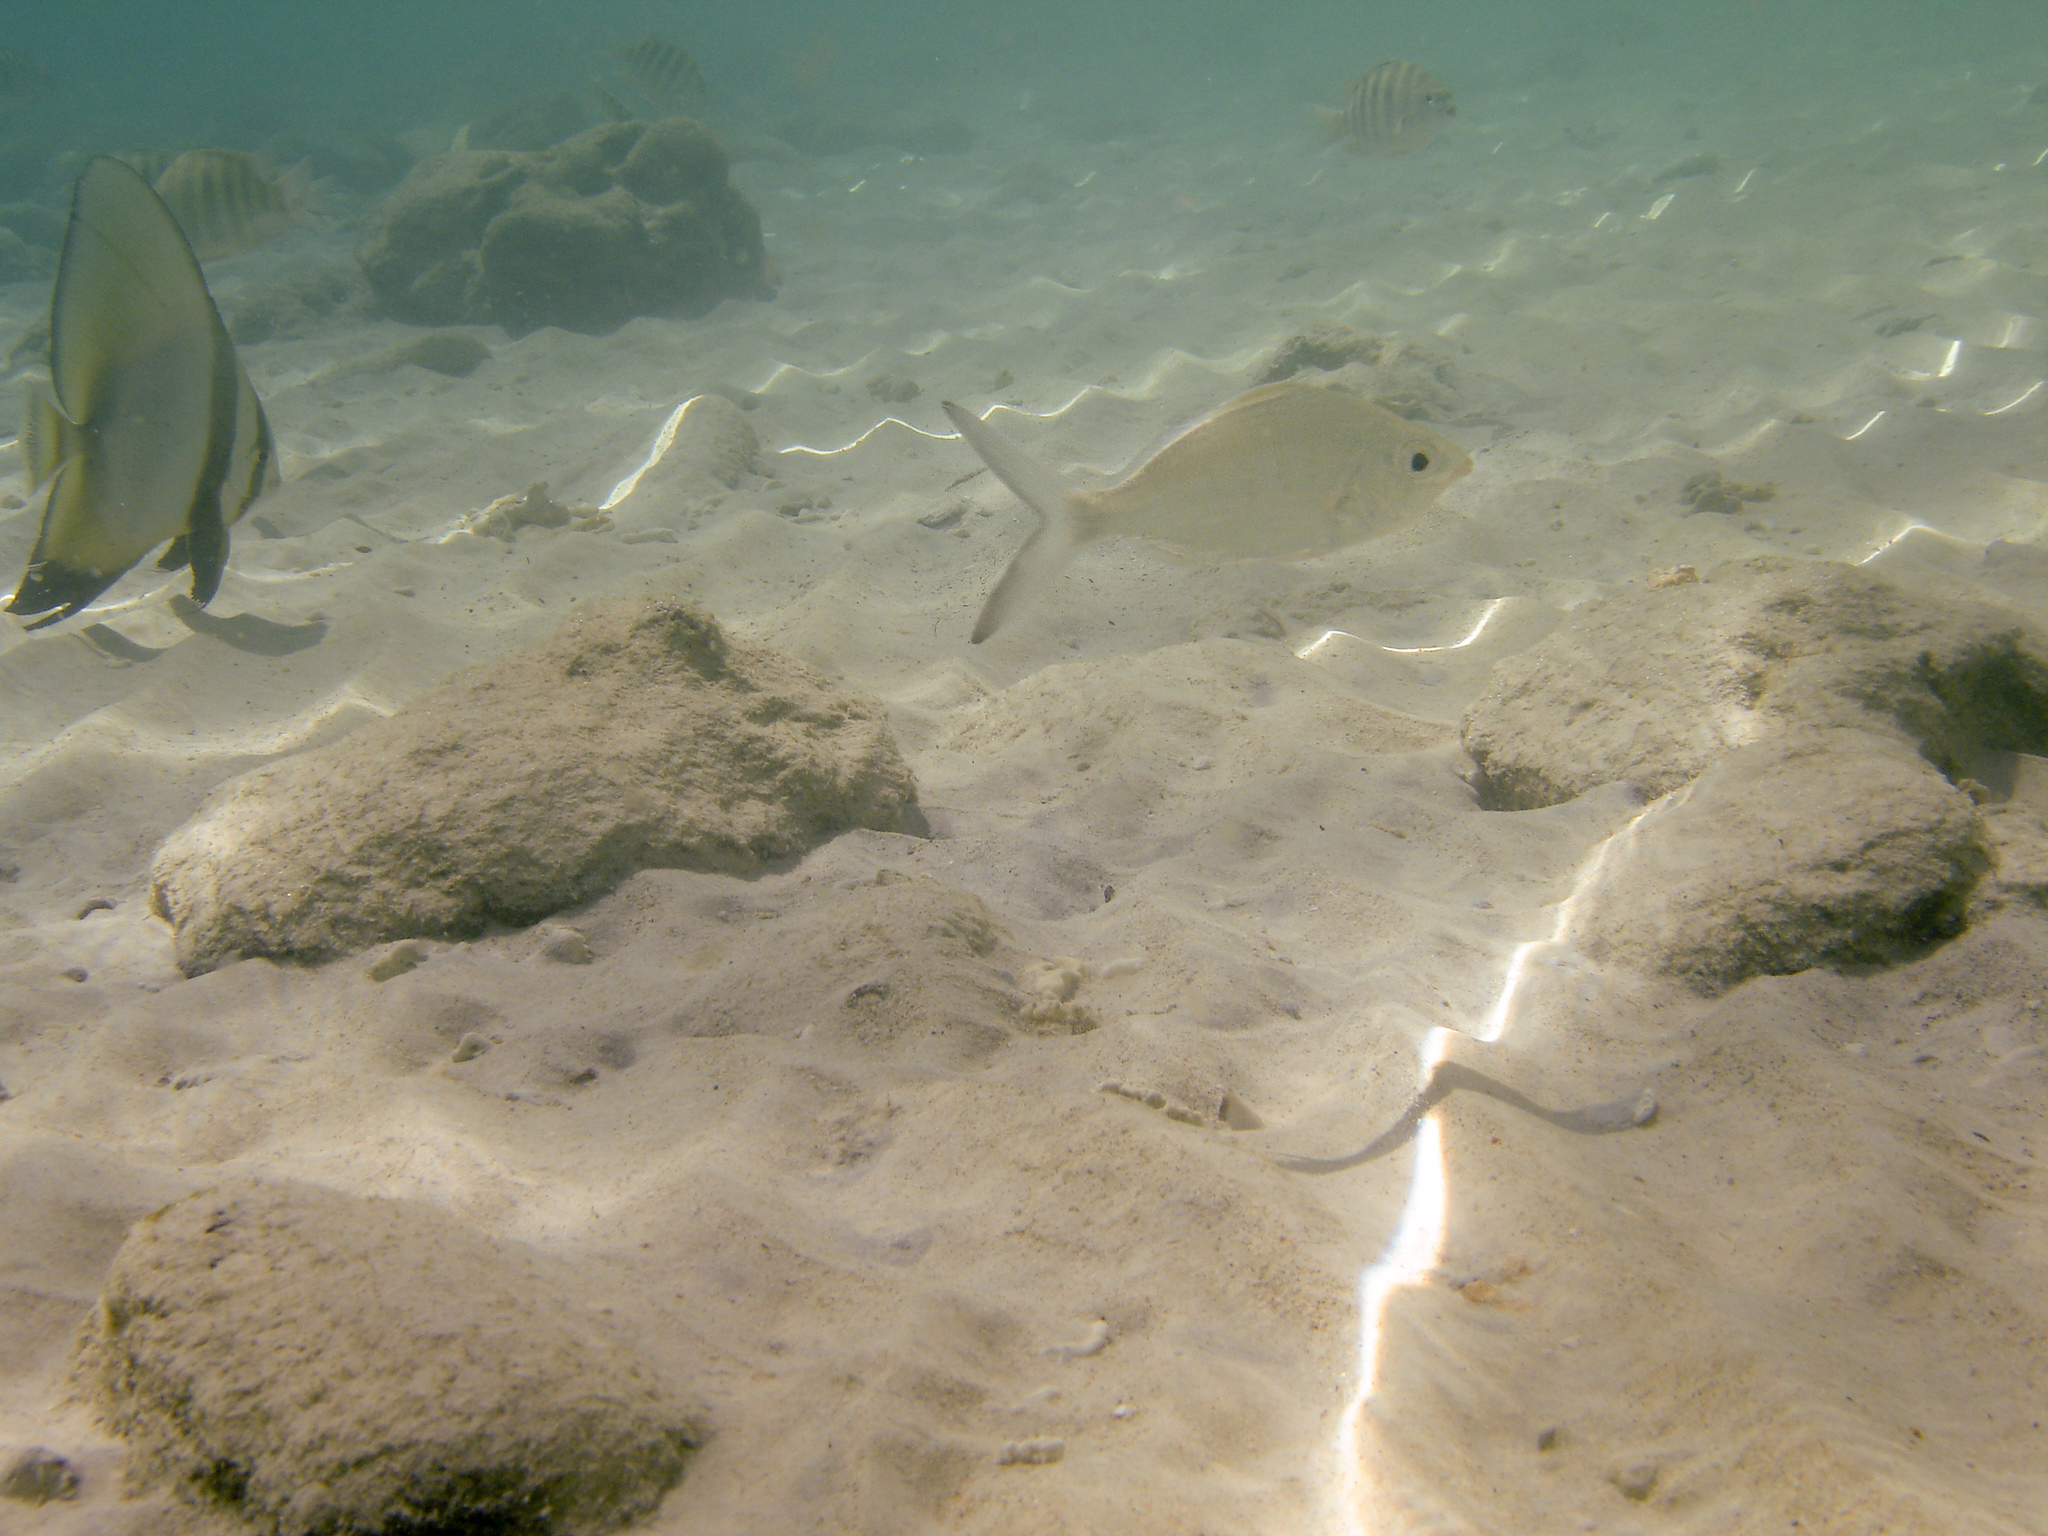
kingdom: Animalia
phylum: Chordata
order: Perciformes
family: Gerreidae
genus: Gerres
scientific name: Gerres longirostris
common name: Strongspine silver-biddy
